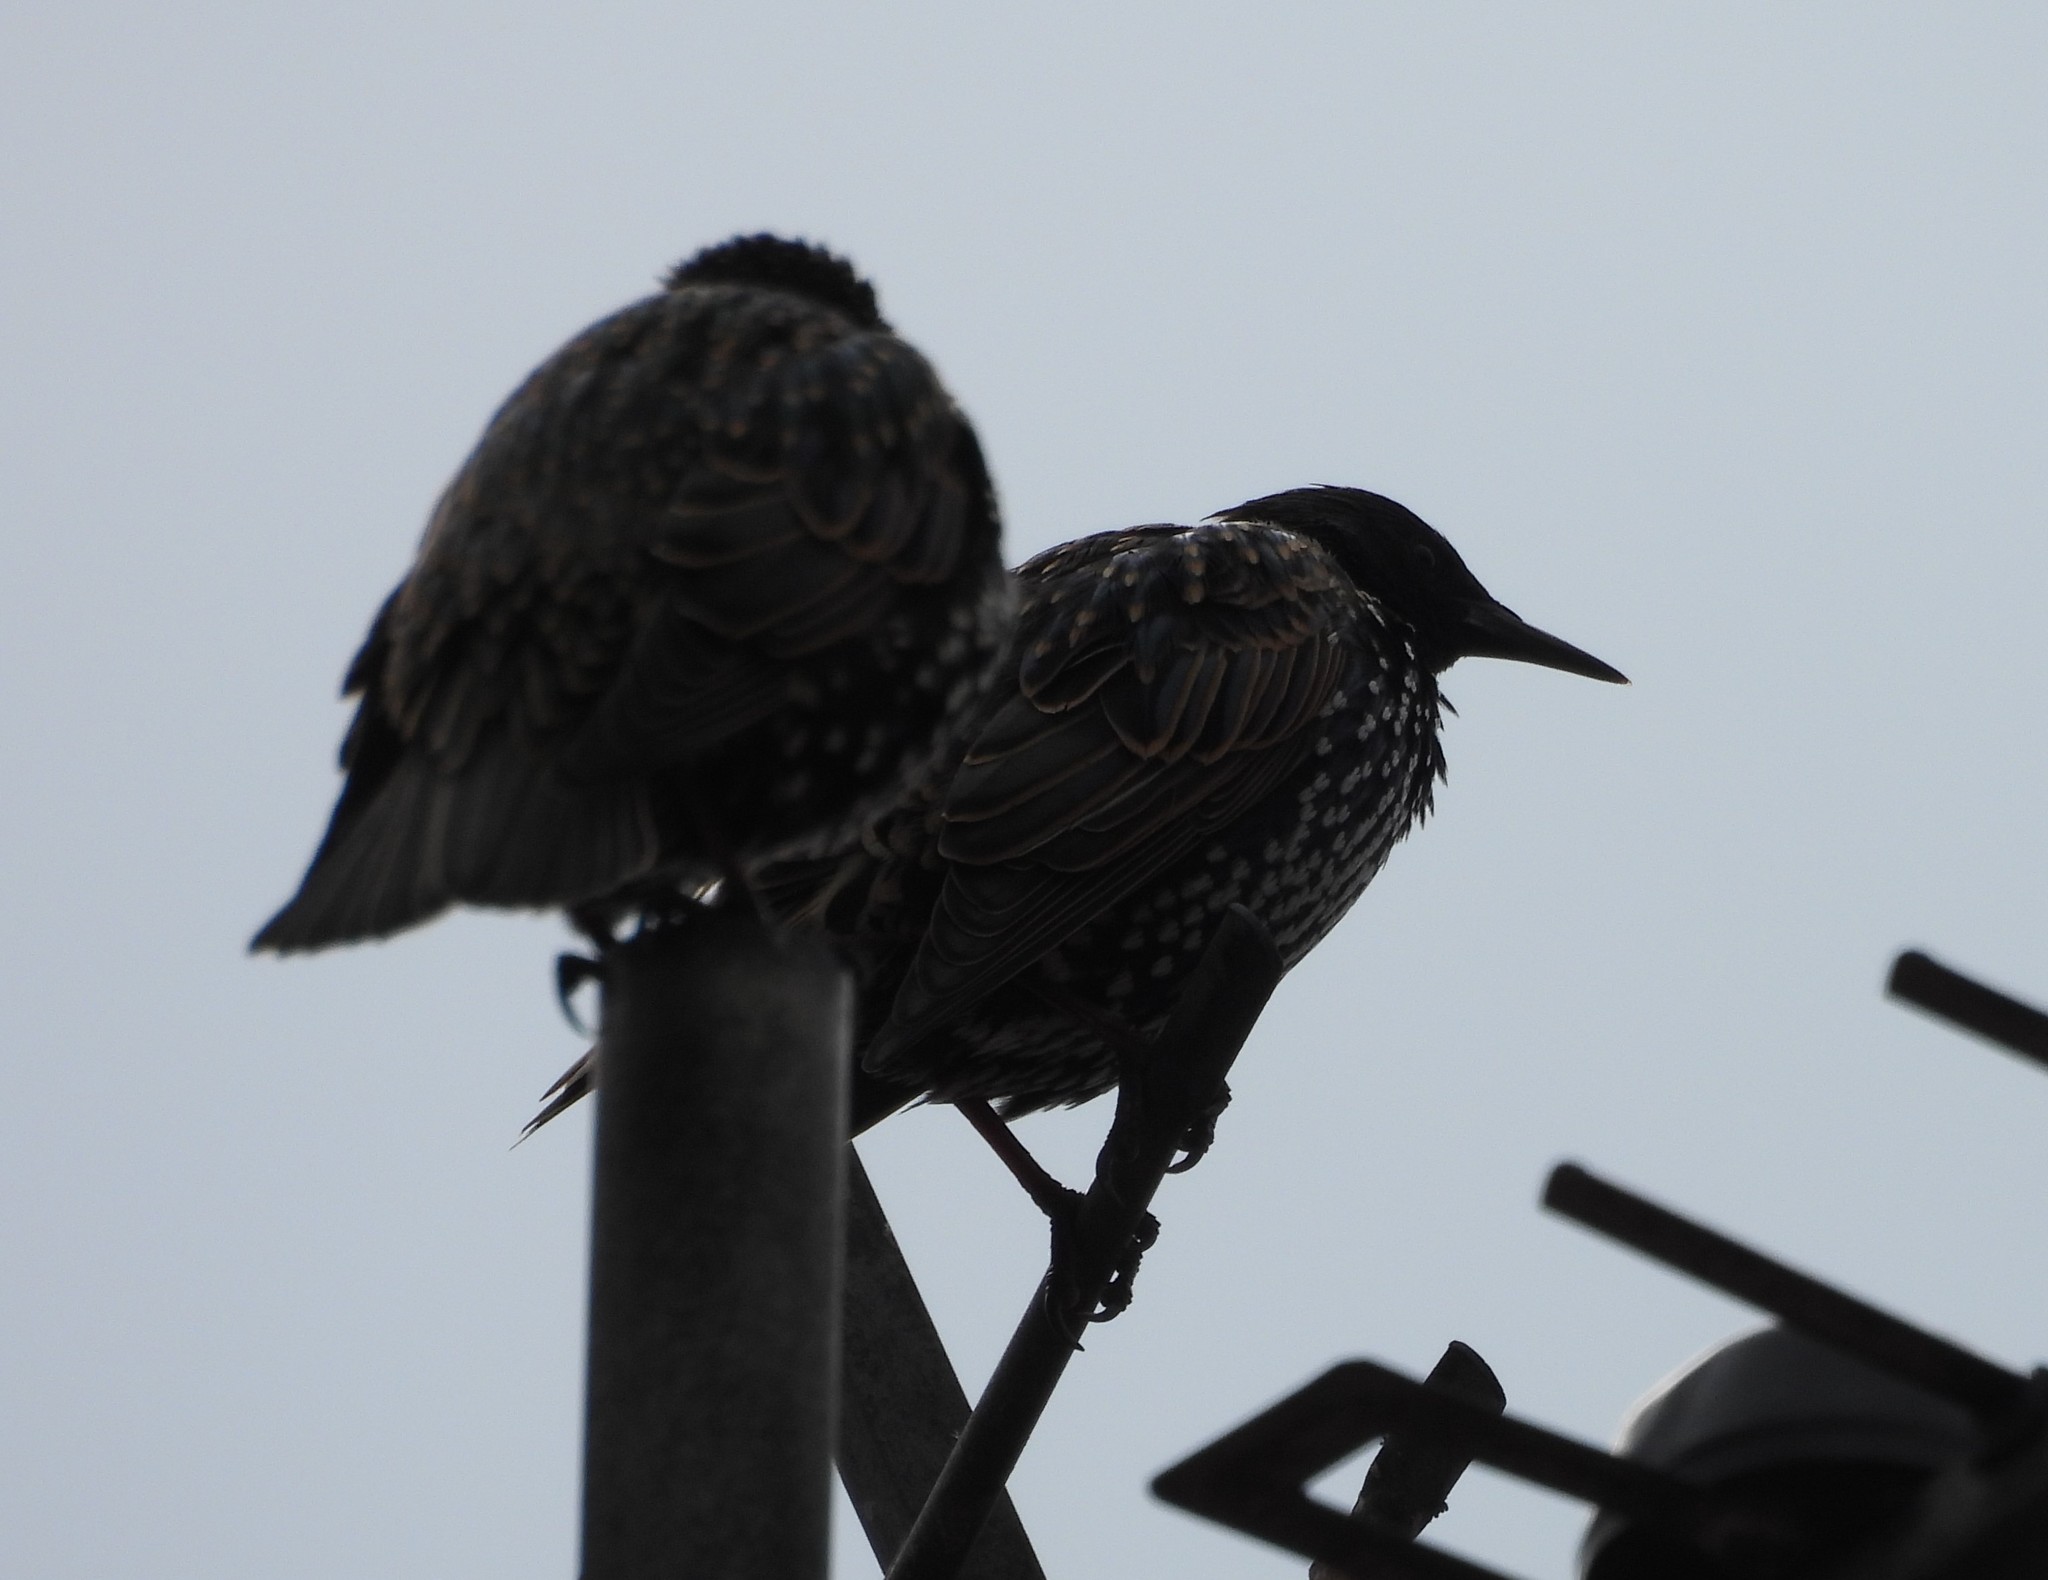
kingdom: Animalia
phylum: Chordata
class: Aves
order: Passeriformes
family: Sturnidae
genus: Sturnus
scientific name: Sturnus vulgaris
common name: Common starling
